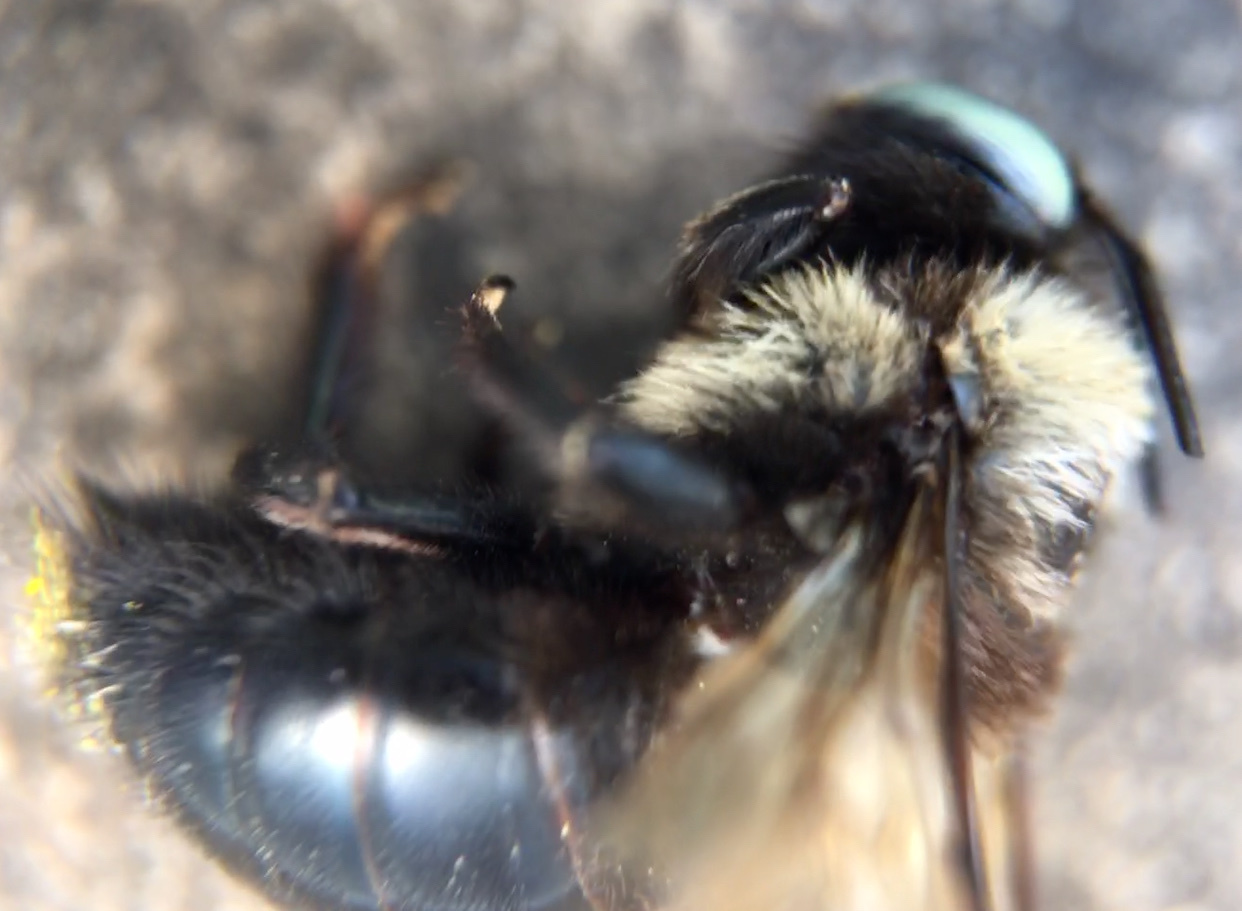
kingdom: Animalia
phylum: Arthropoda
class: Insecta
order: Hymenoptera
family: Apidae
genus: Xylocopa
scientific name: Xylocopa tabaniformis
